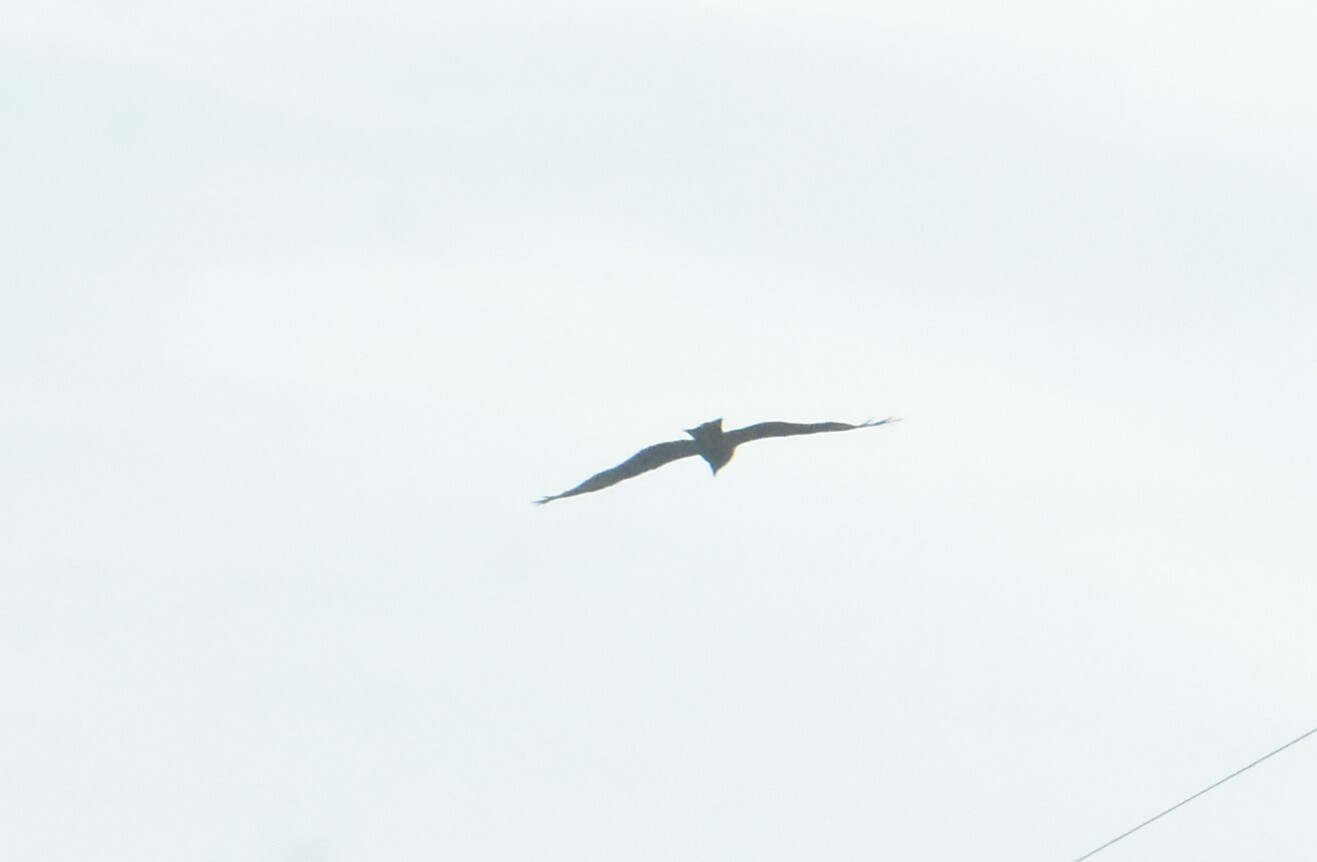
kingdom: Animalia
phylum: Chordata
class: Aves
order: Accipitriformes
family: Accipitridae
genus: Milvus
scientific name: Milvus migrans
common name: Black kite
